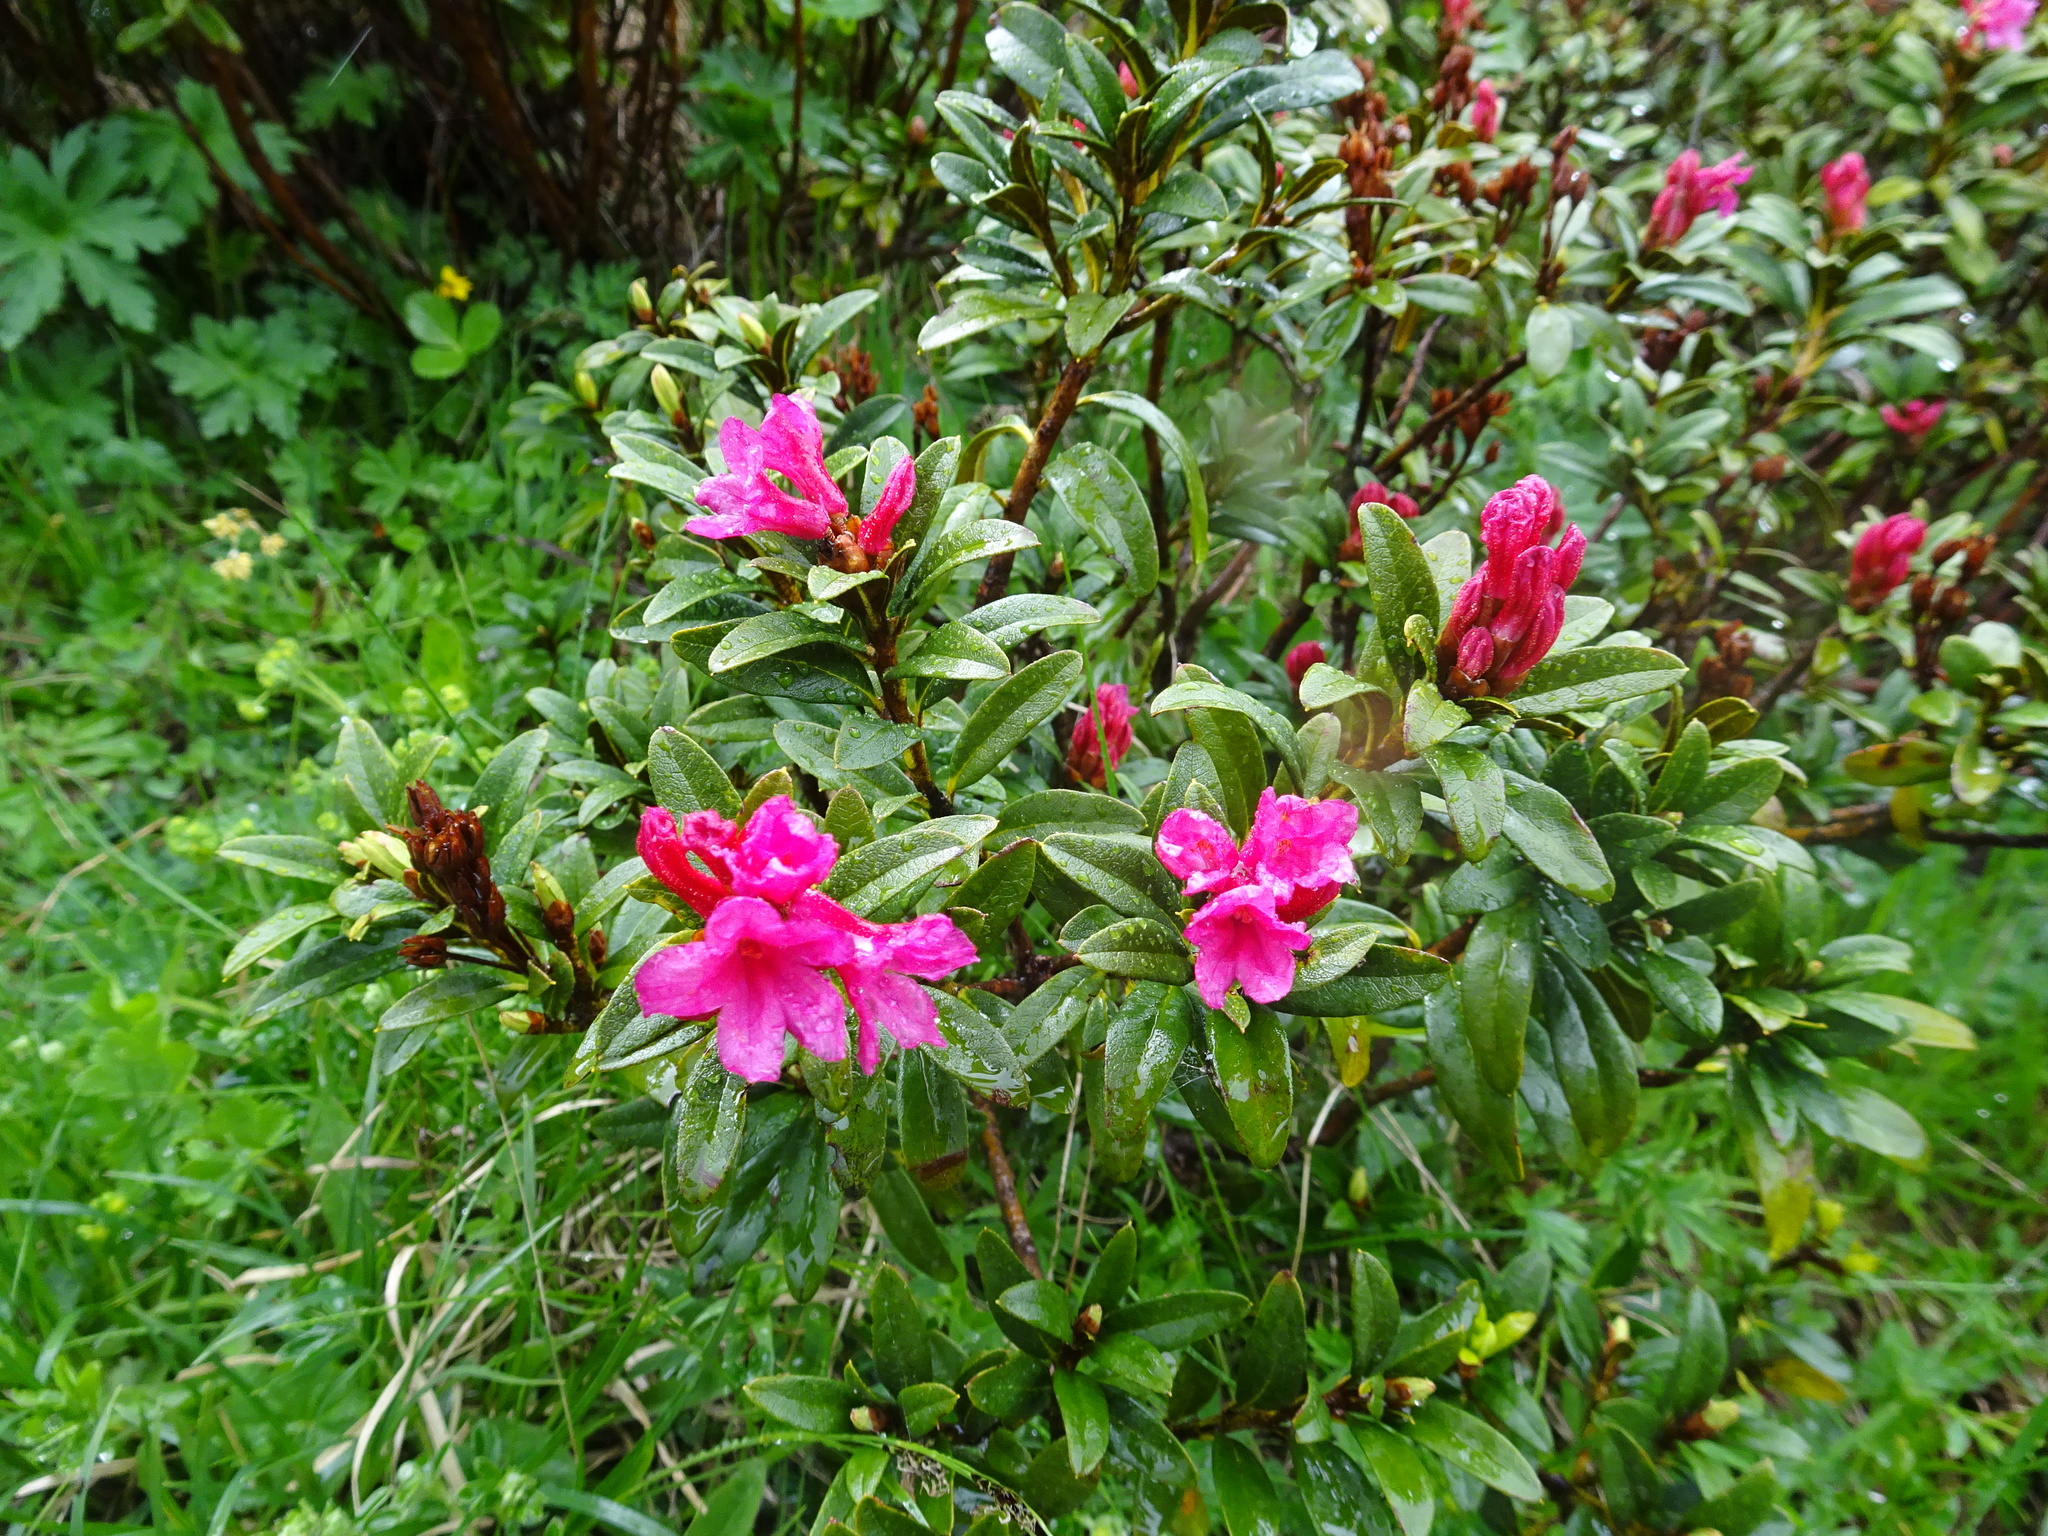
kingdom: Plantae
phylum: Tracheophyta
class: Magnoliopsida
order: Ericales
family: Ericaceae
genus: Rhododendron
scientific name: Rhododendron ferrugineum
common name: Alpenrose
